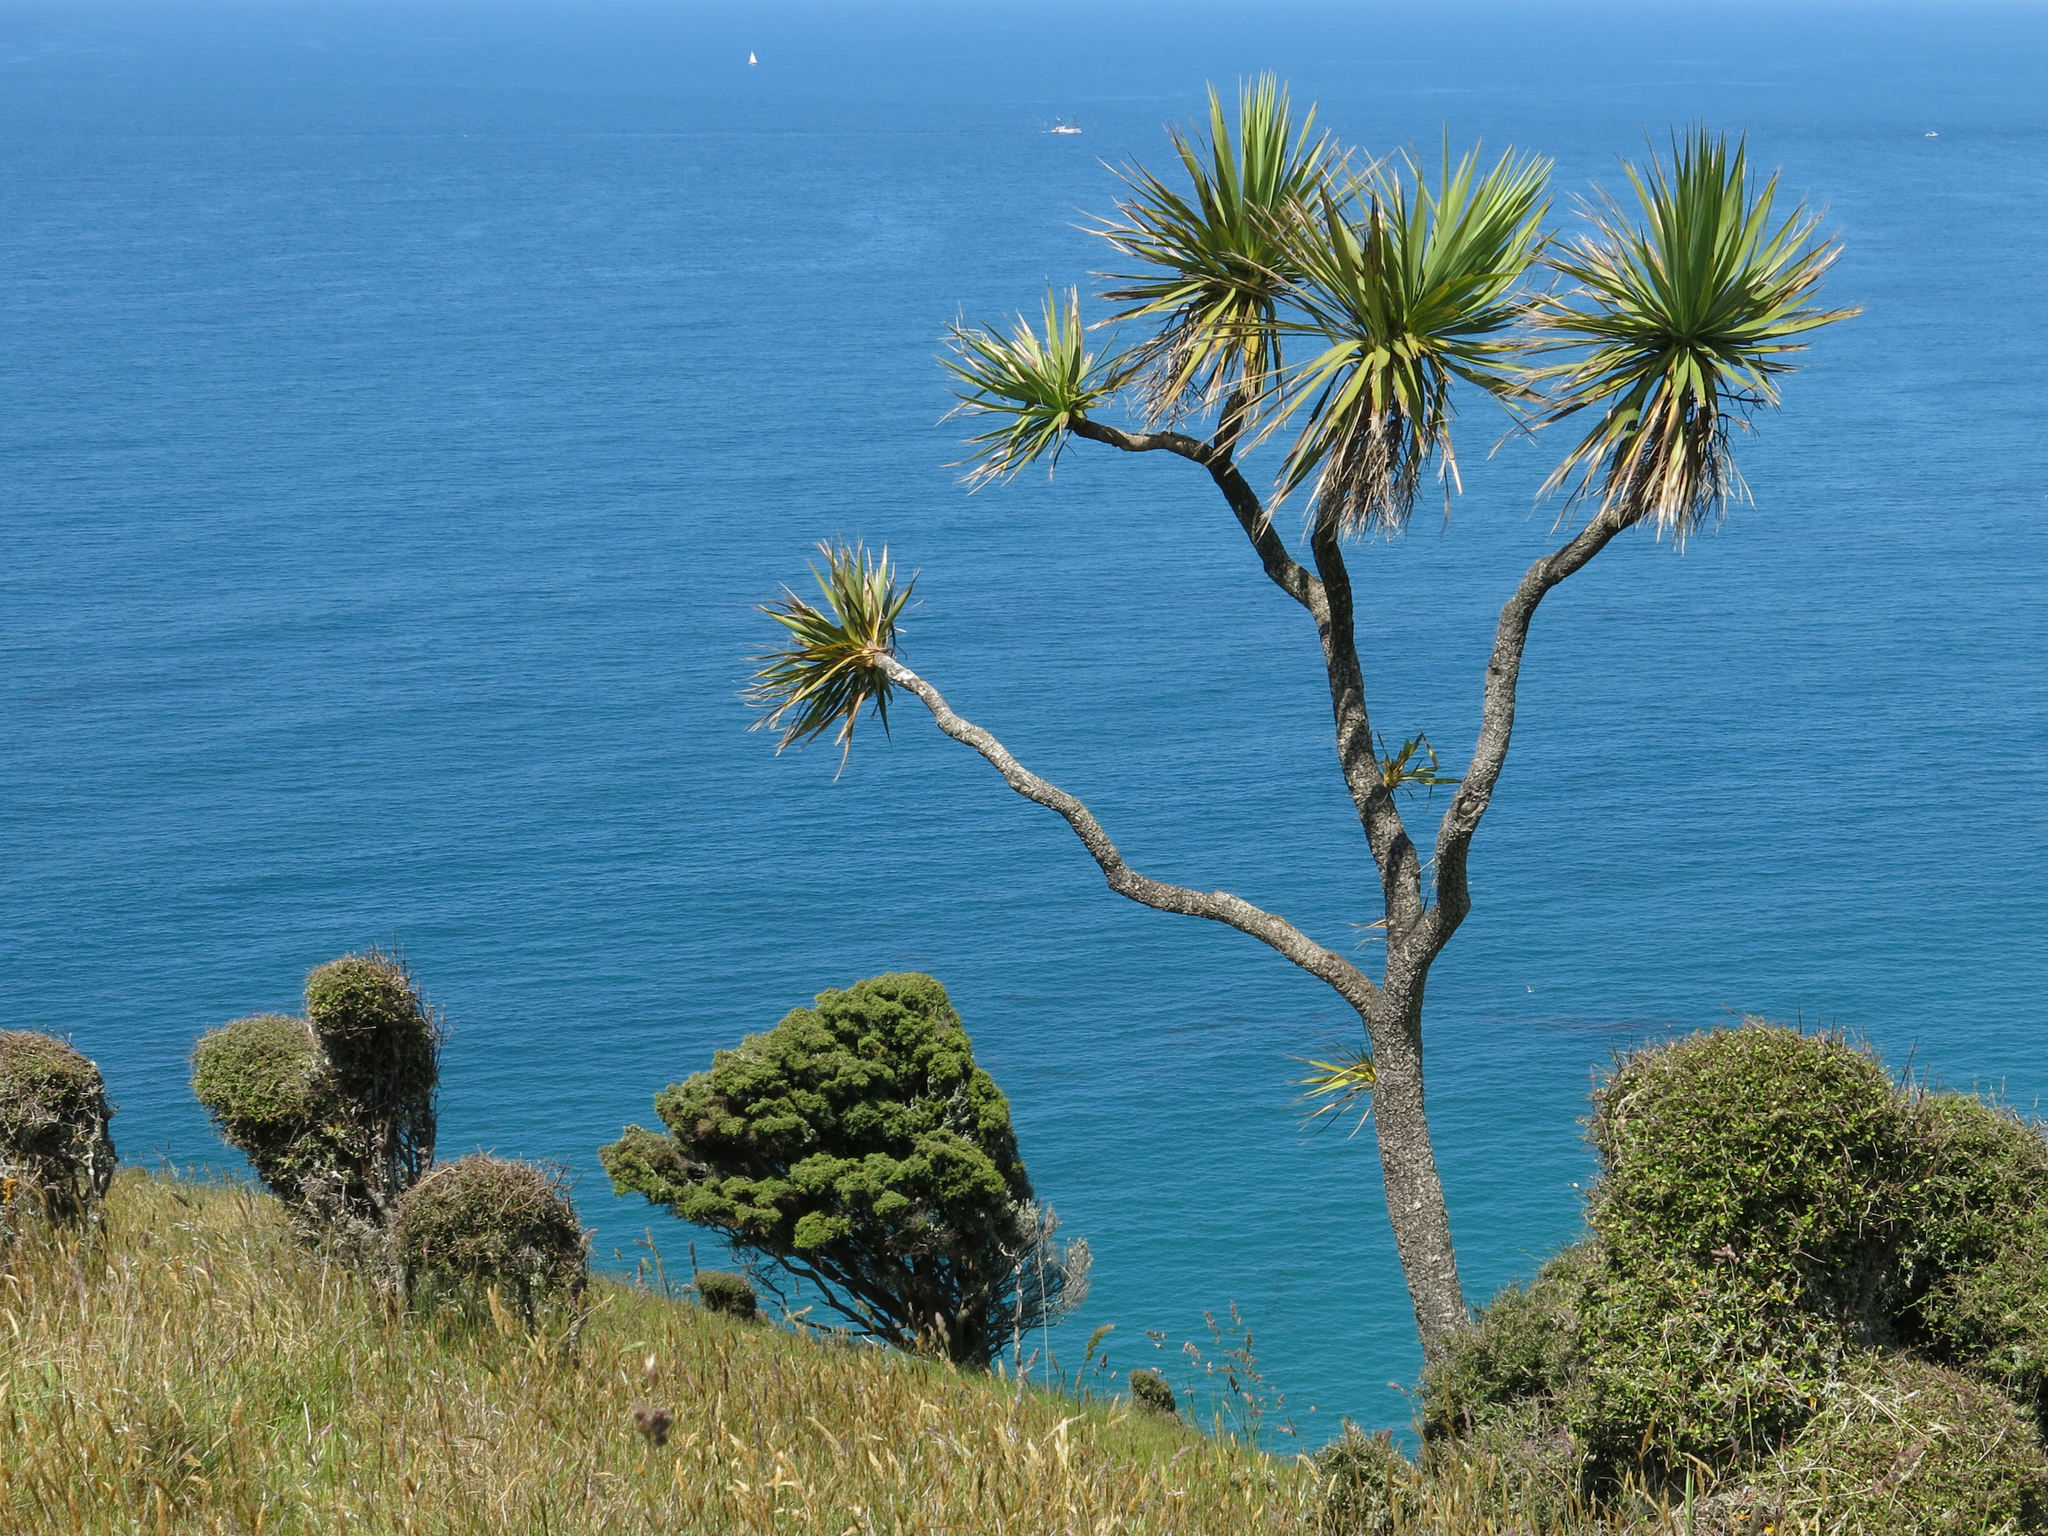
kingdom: Plantae
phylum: Tracheophyta
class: Liliopsida
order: Asparagales
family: Asparagaceae
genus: Cordyline
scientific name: Cordyline australis
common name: Cabbage-palm
